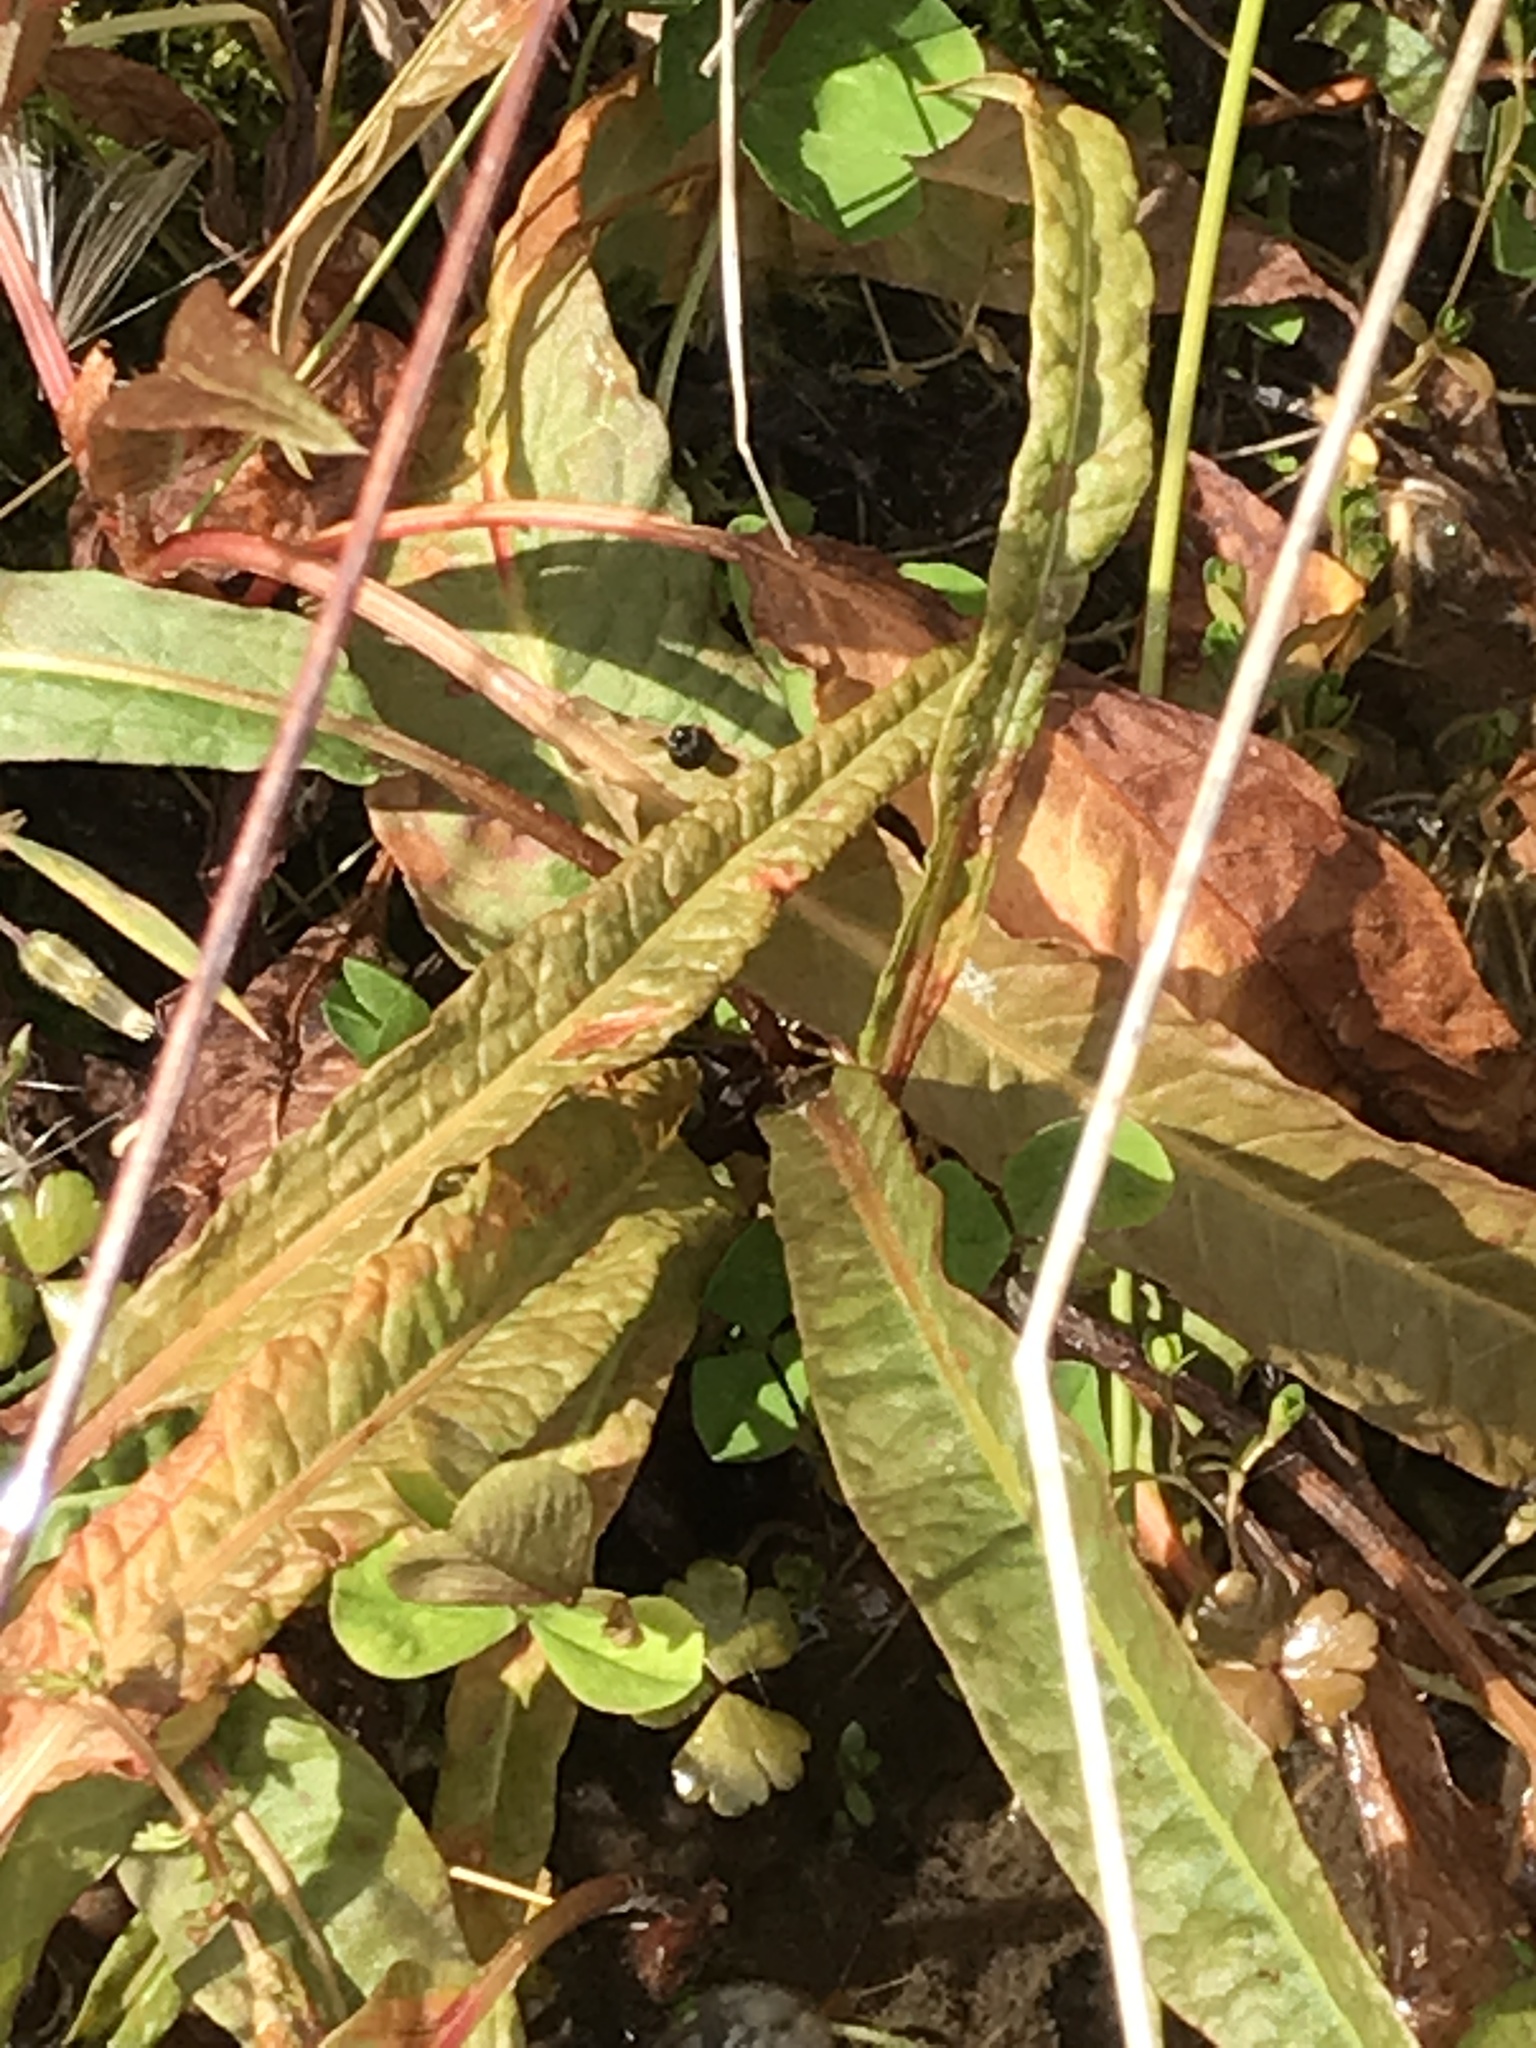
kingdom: Plantae
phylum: Tracheophyta
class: Magnoliopsida
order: Caryophyllales
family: Polygonaceae
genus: Rumex
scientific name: Rumex flexuosus
